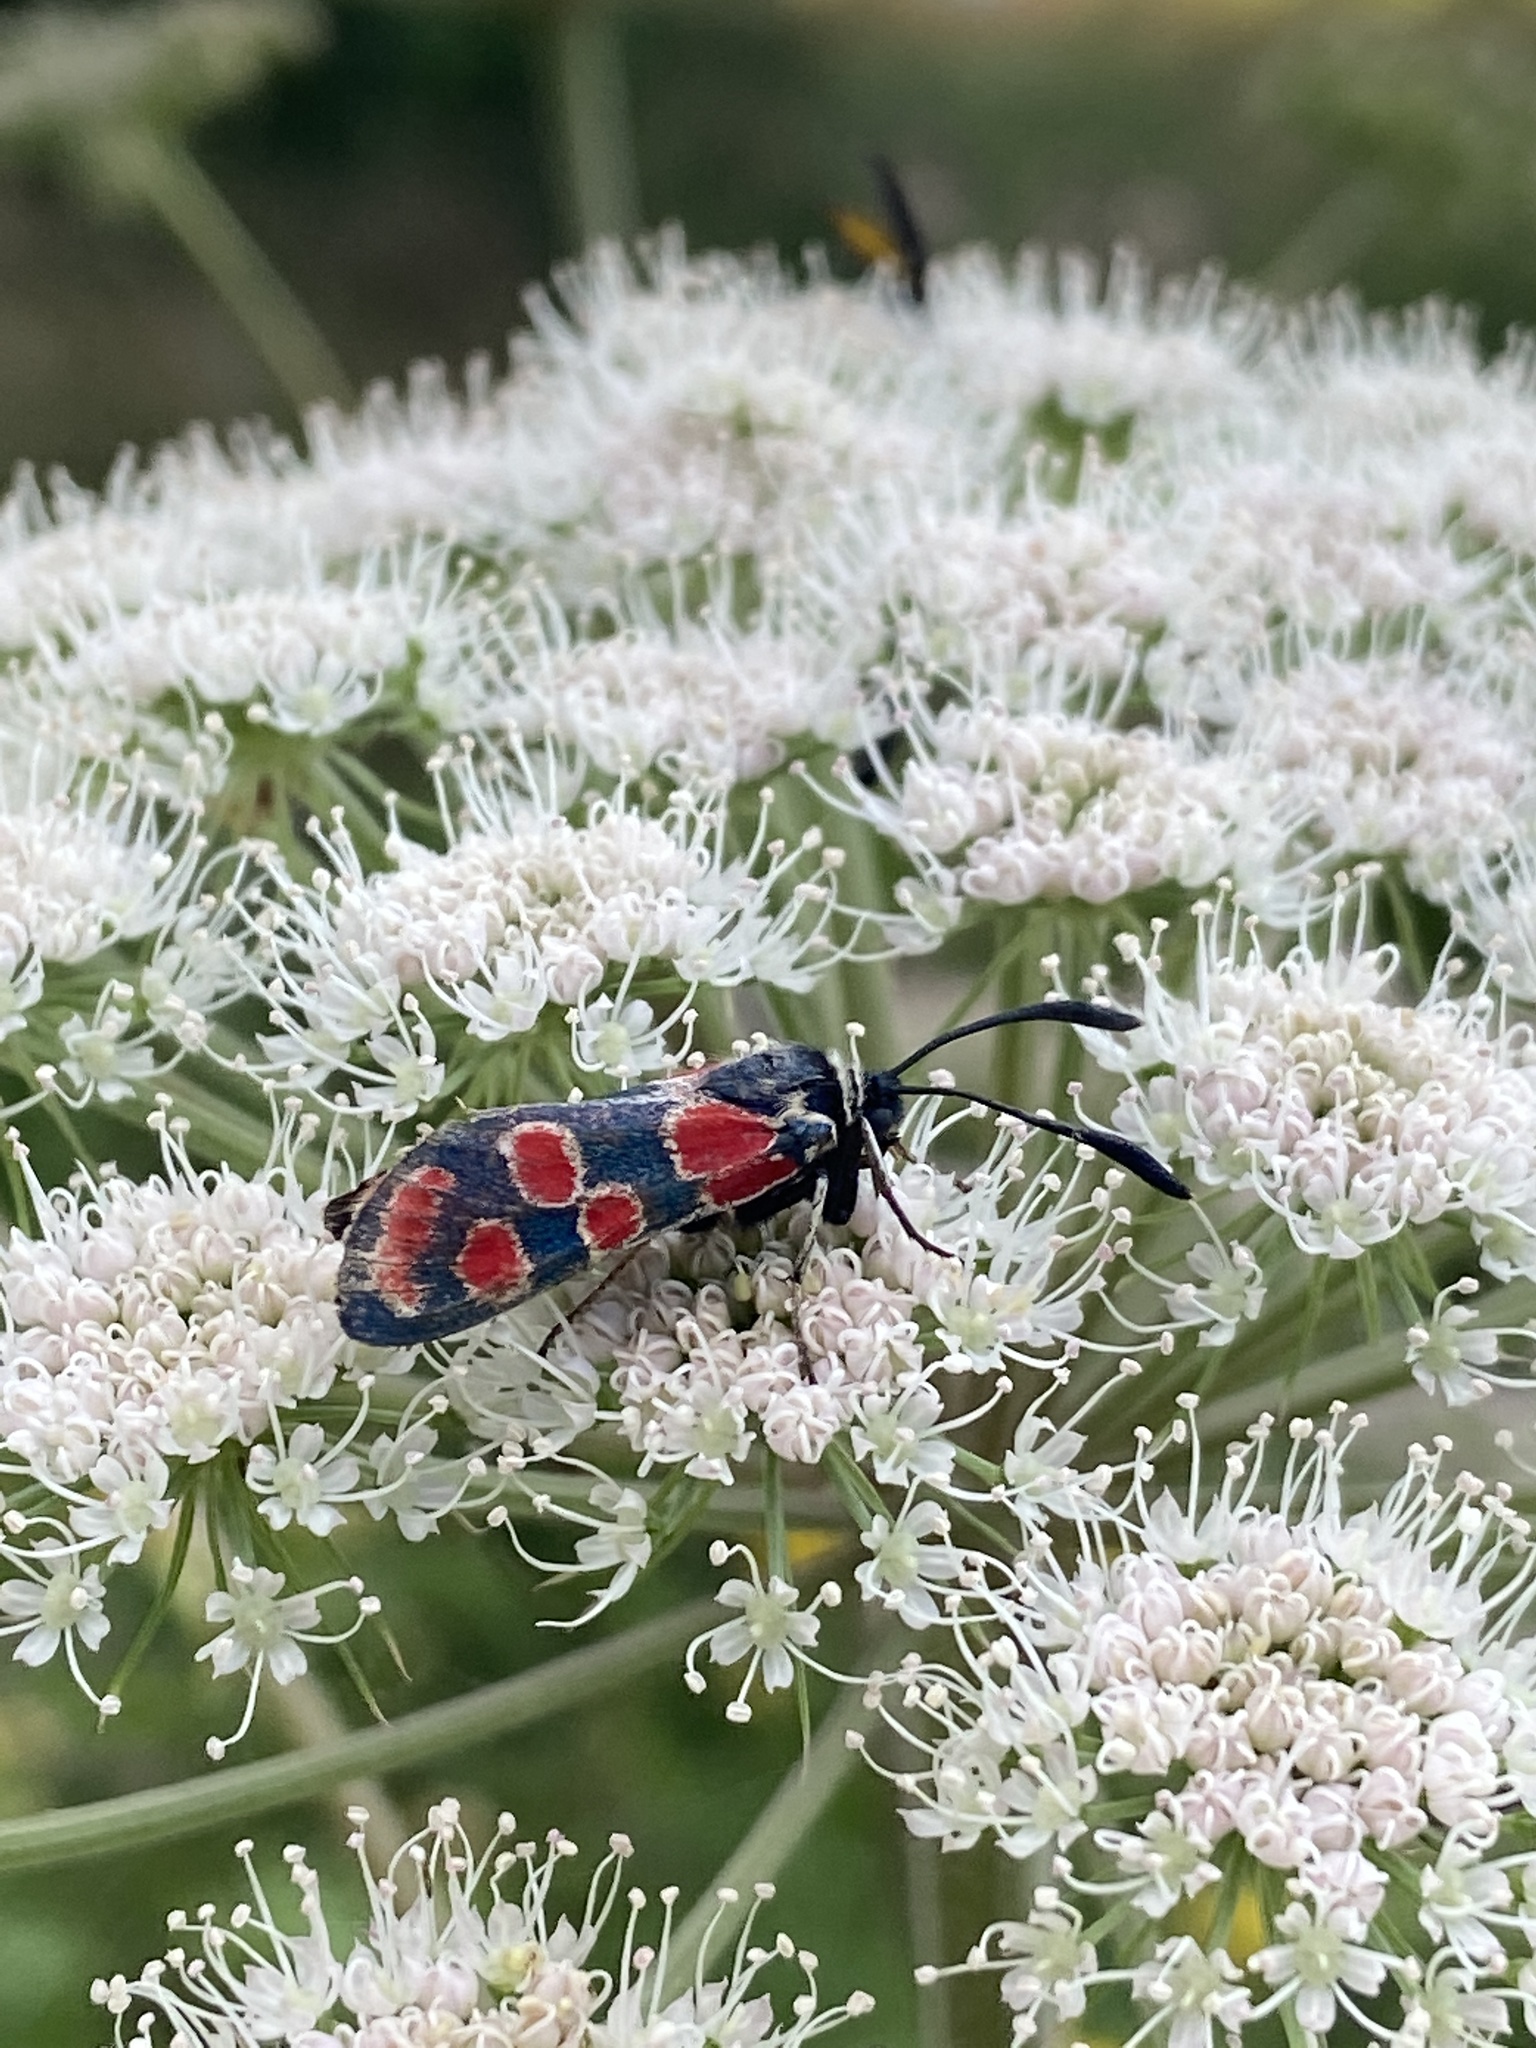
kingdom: Animalia
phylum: Arthropoda
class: Insecta
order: Lepidoptera
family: Zygaenidae
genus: Zygaena
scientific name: Zygaena carniolica
